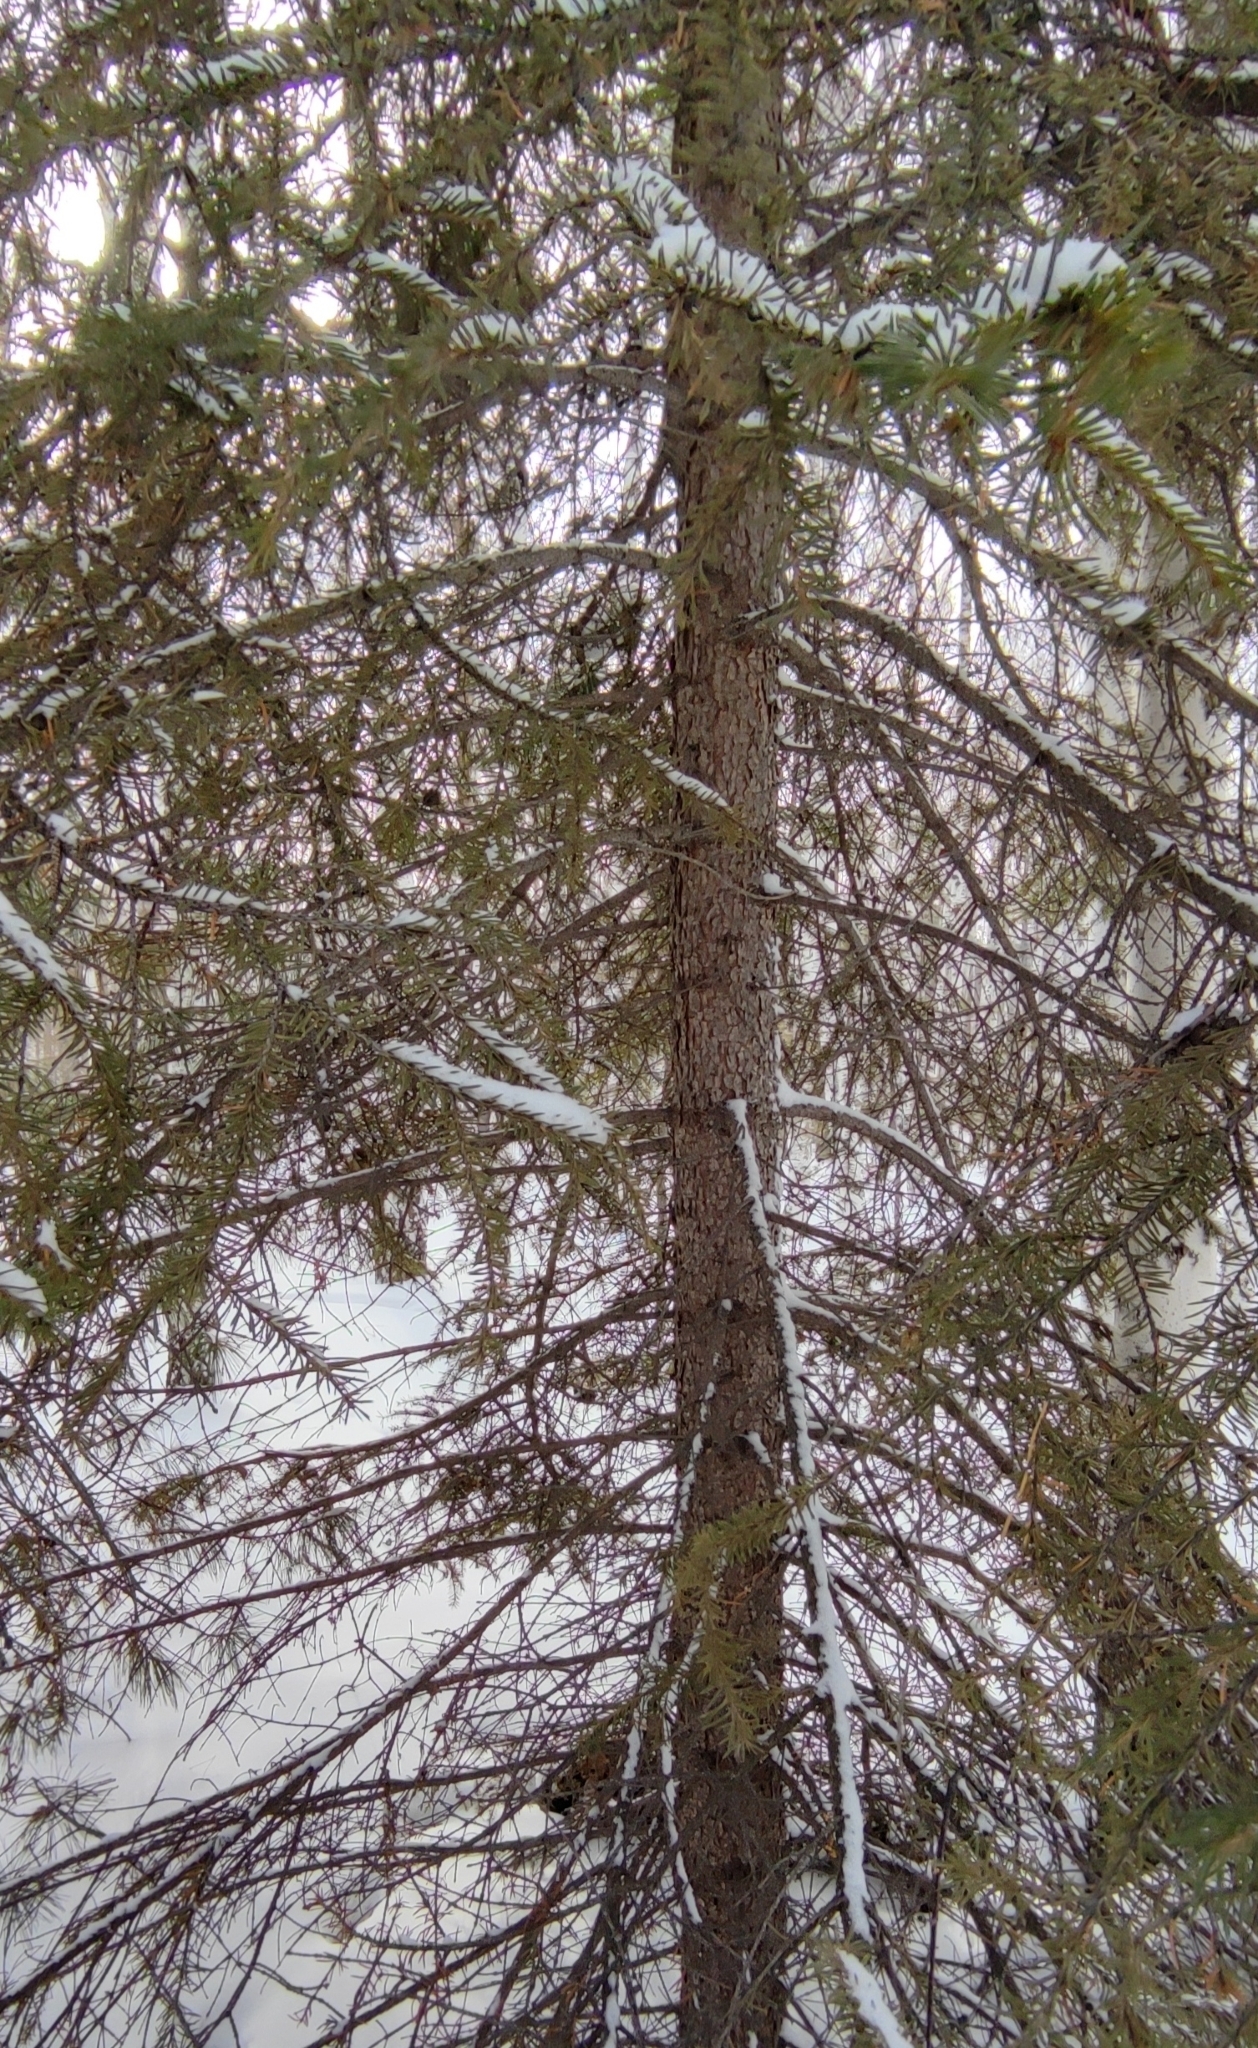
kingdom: Plantae
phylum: Tracheophyta
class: Pinopsida
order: Pinales
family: Pinaceae
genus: Picea
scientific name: Picea obovata
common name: Siberian spruce
